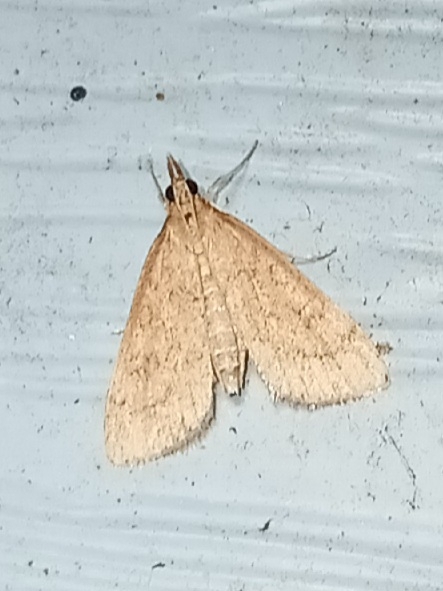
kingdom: Animalia
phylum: Arthropoda
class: Insecta
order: Lepidoptera
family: Crambidae
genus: Udea
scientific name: Udea rubigalis
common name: Celery leaftier moth
